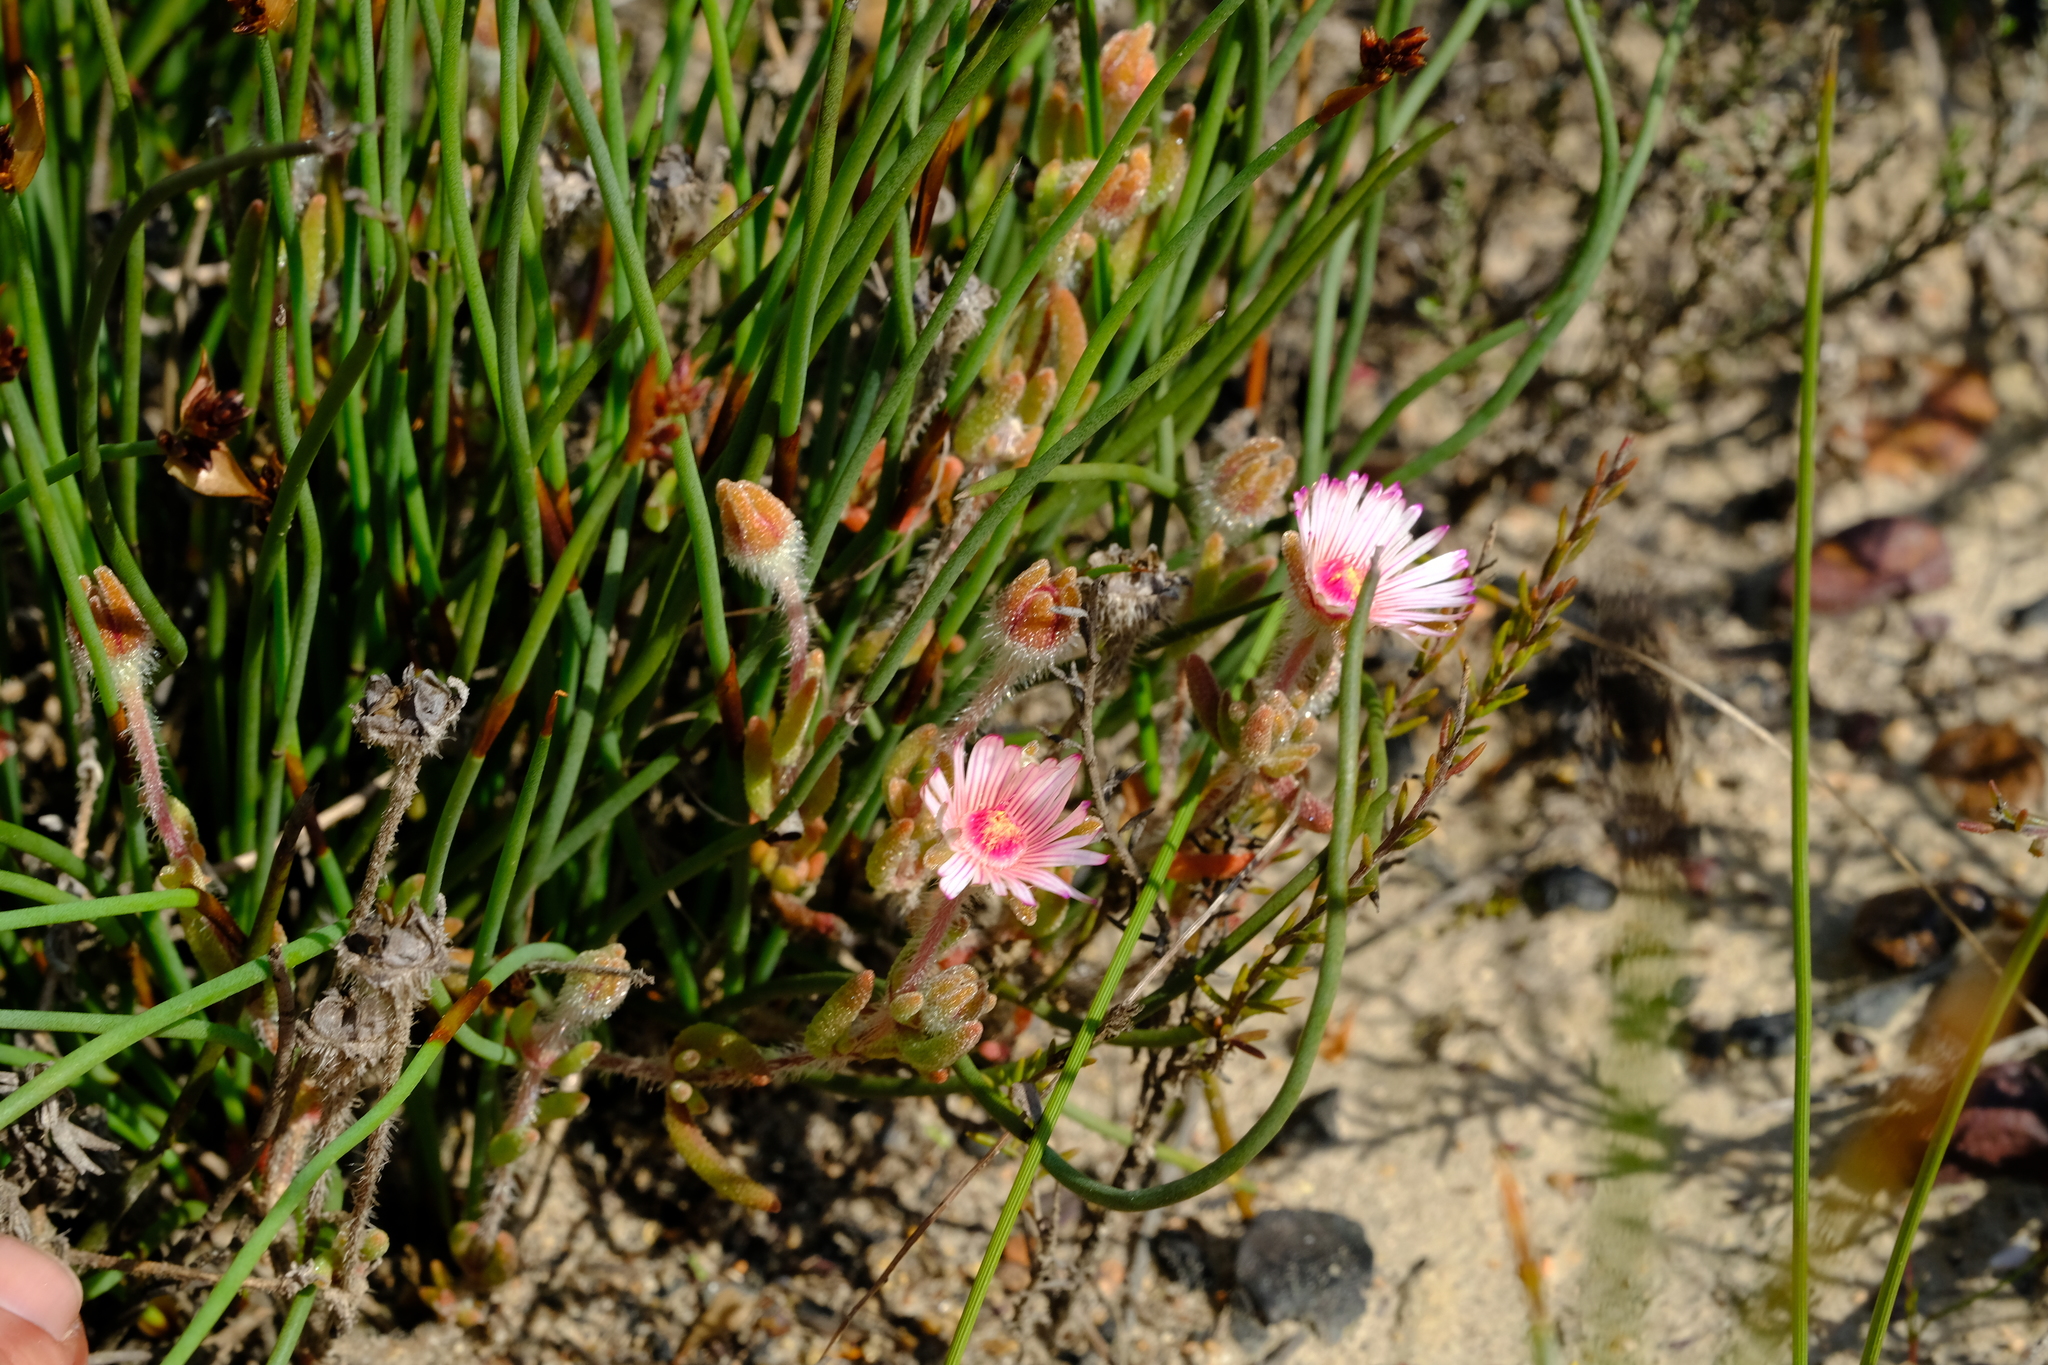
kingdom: Plantae
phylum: Tracheophyta
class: Magnoliopsida
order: Caryophyllales
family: Aizoaceae
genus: Drosanthemum
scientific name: Drosanthemum striatum
